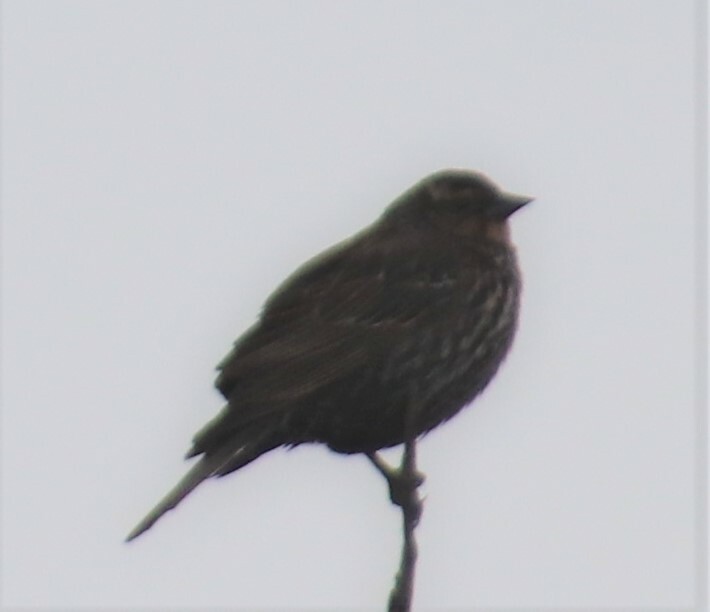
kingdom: Animalia
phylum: Chordata
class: Aves
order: Passeriformes
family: Icteridae
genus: Agelaius
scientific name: Agelaius phoeniceus
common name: Red-winged blackbird
